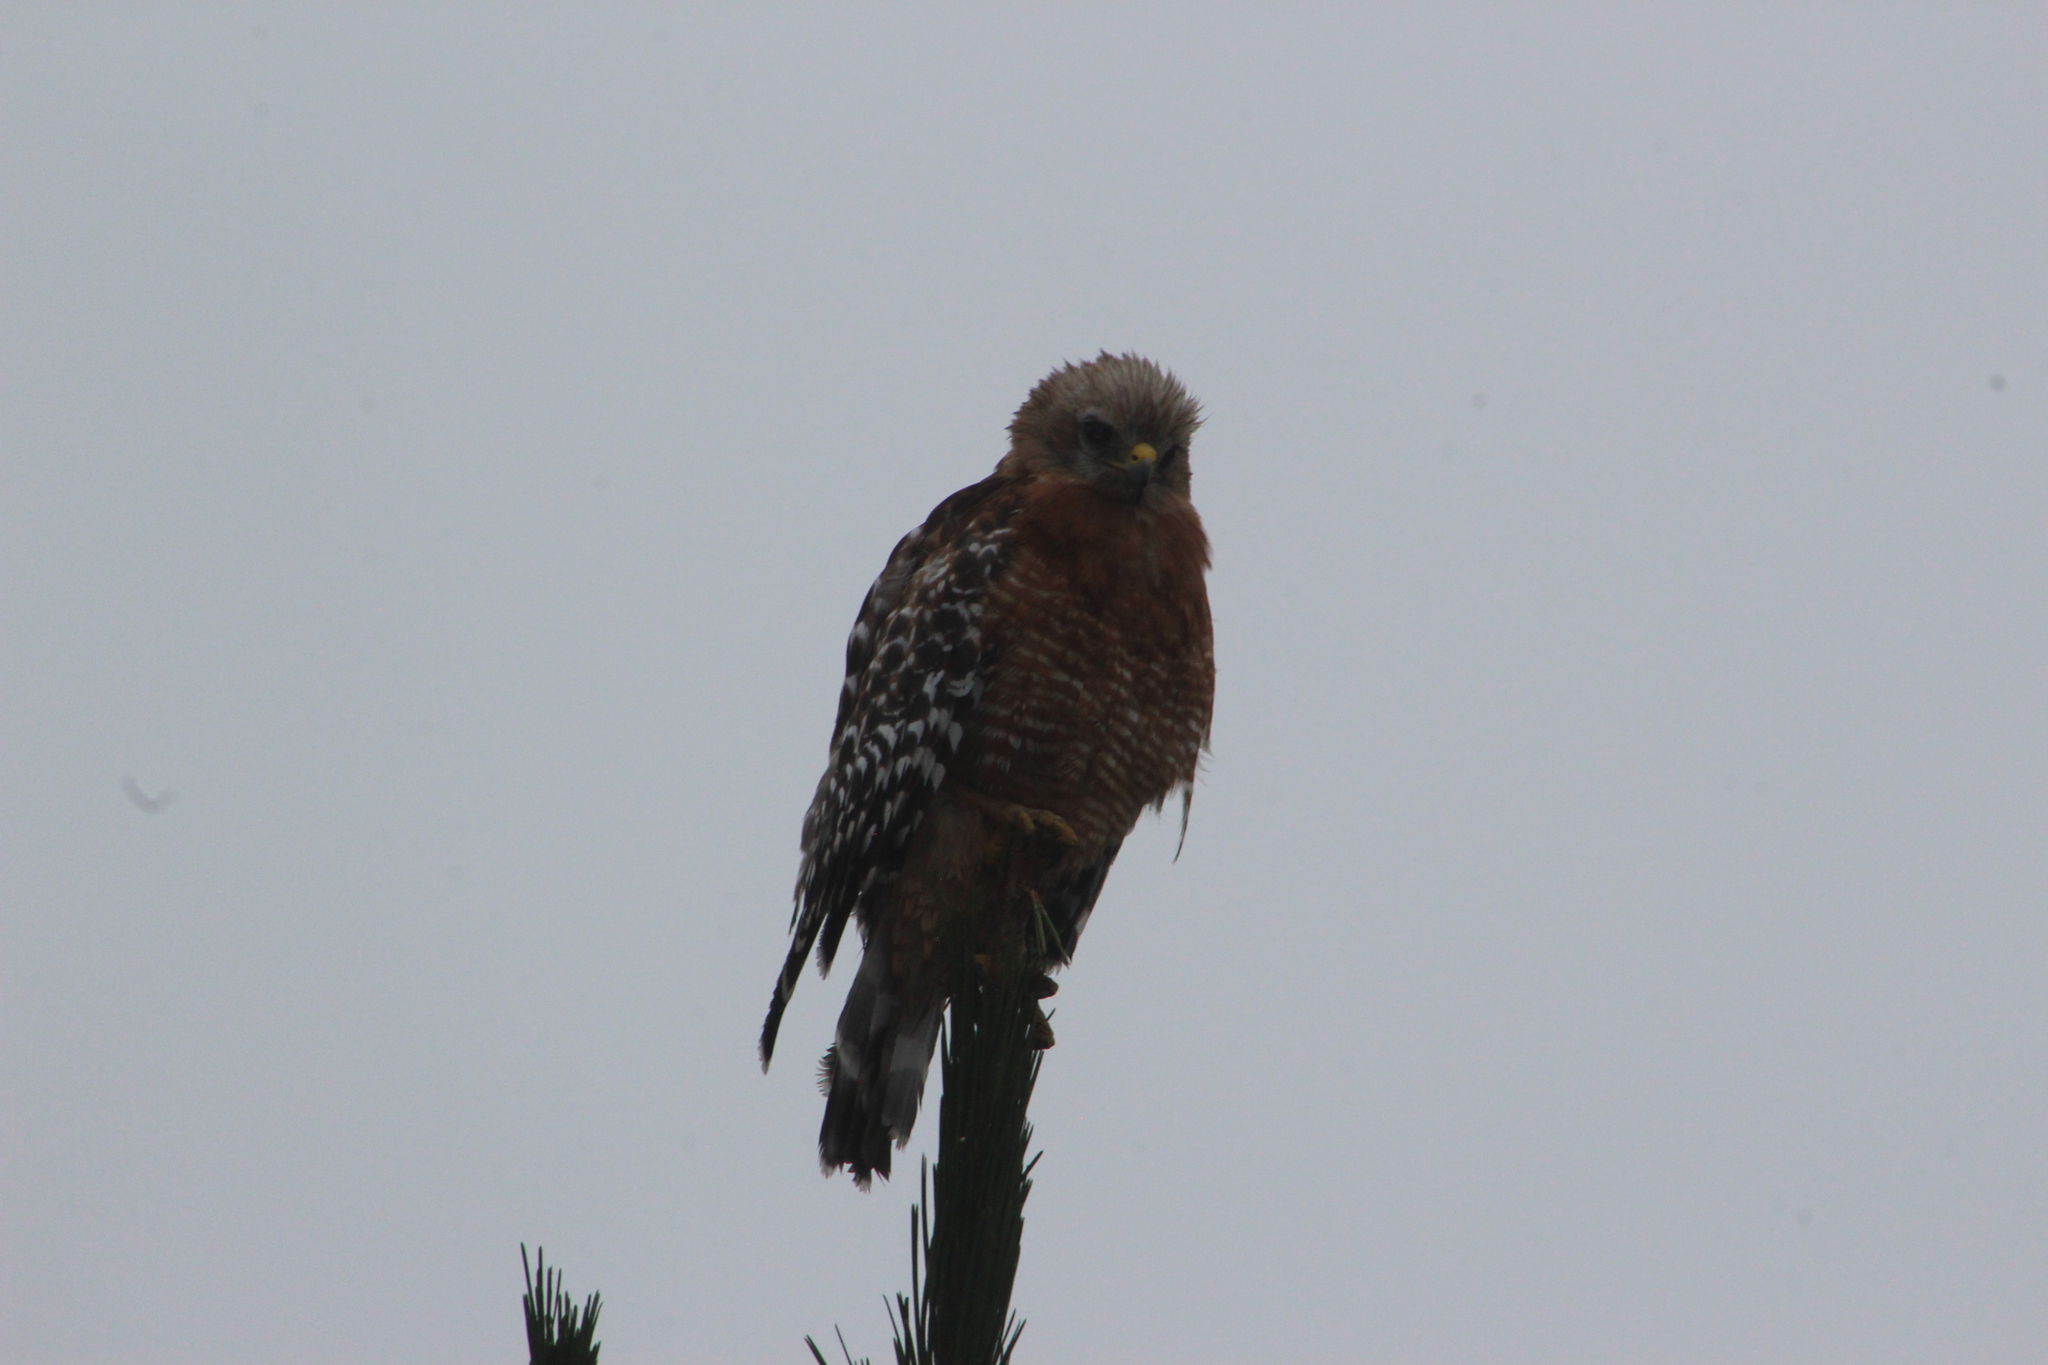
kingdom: Animalia
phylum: Chordata
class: Aves
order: Accipitriformes
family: Accipitridae
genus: Buteo
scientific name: Buteo lineatus
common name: Red-shouldered hawk
